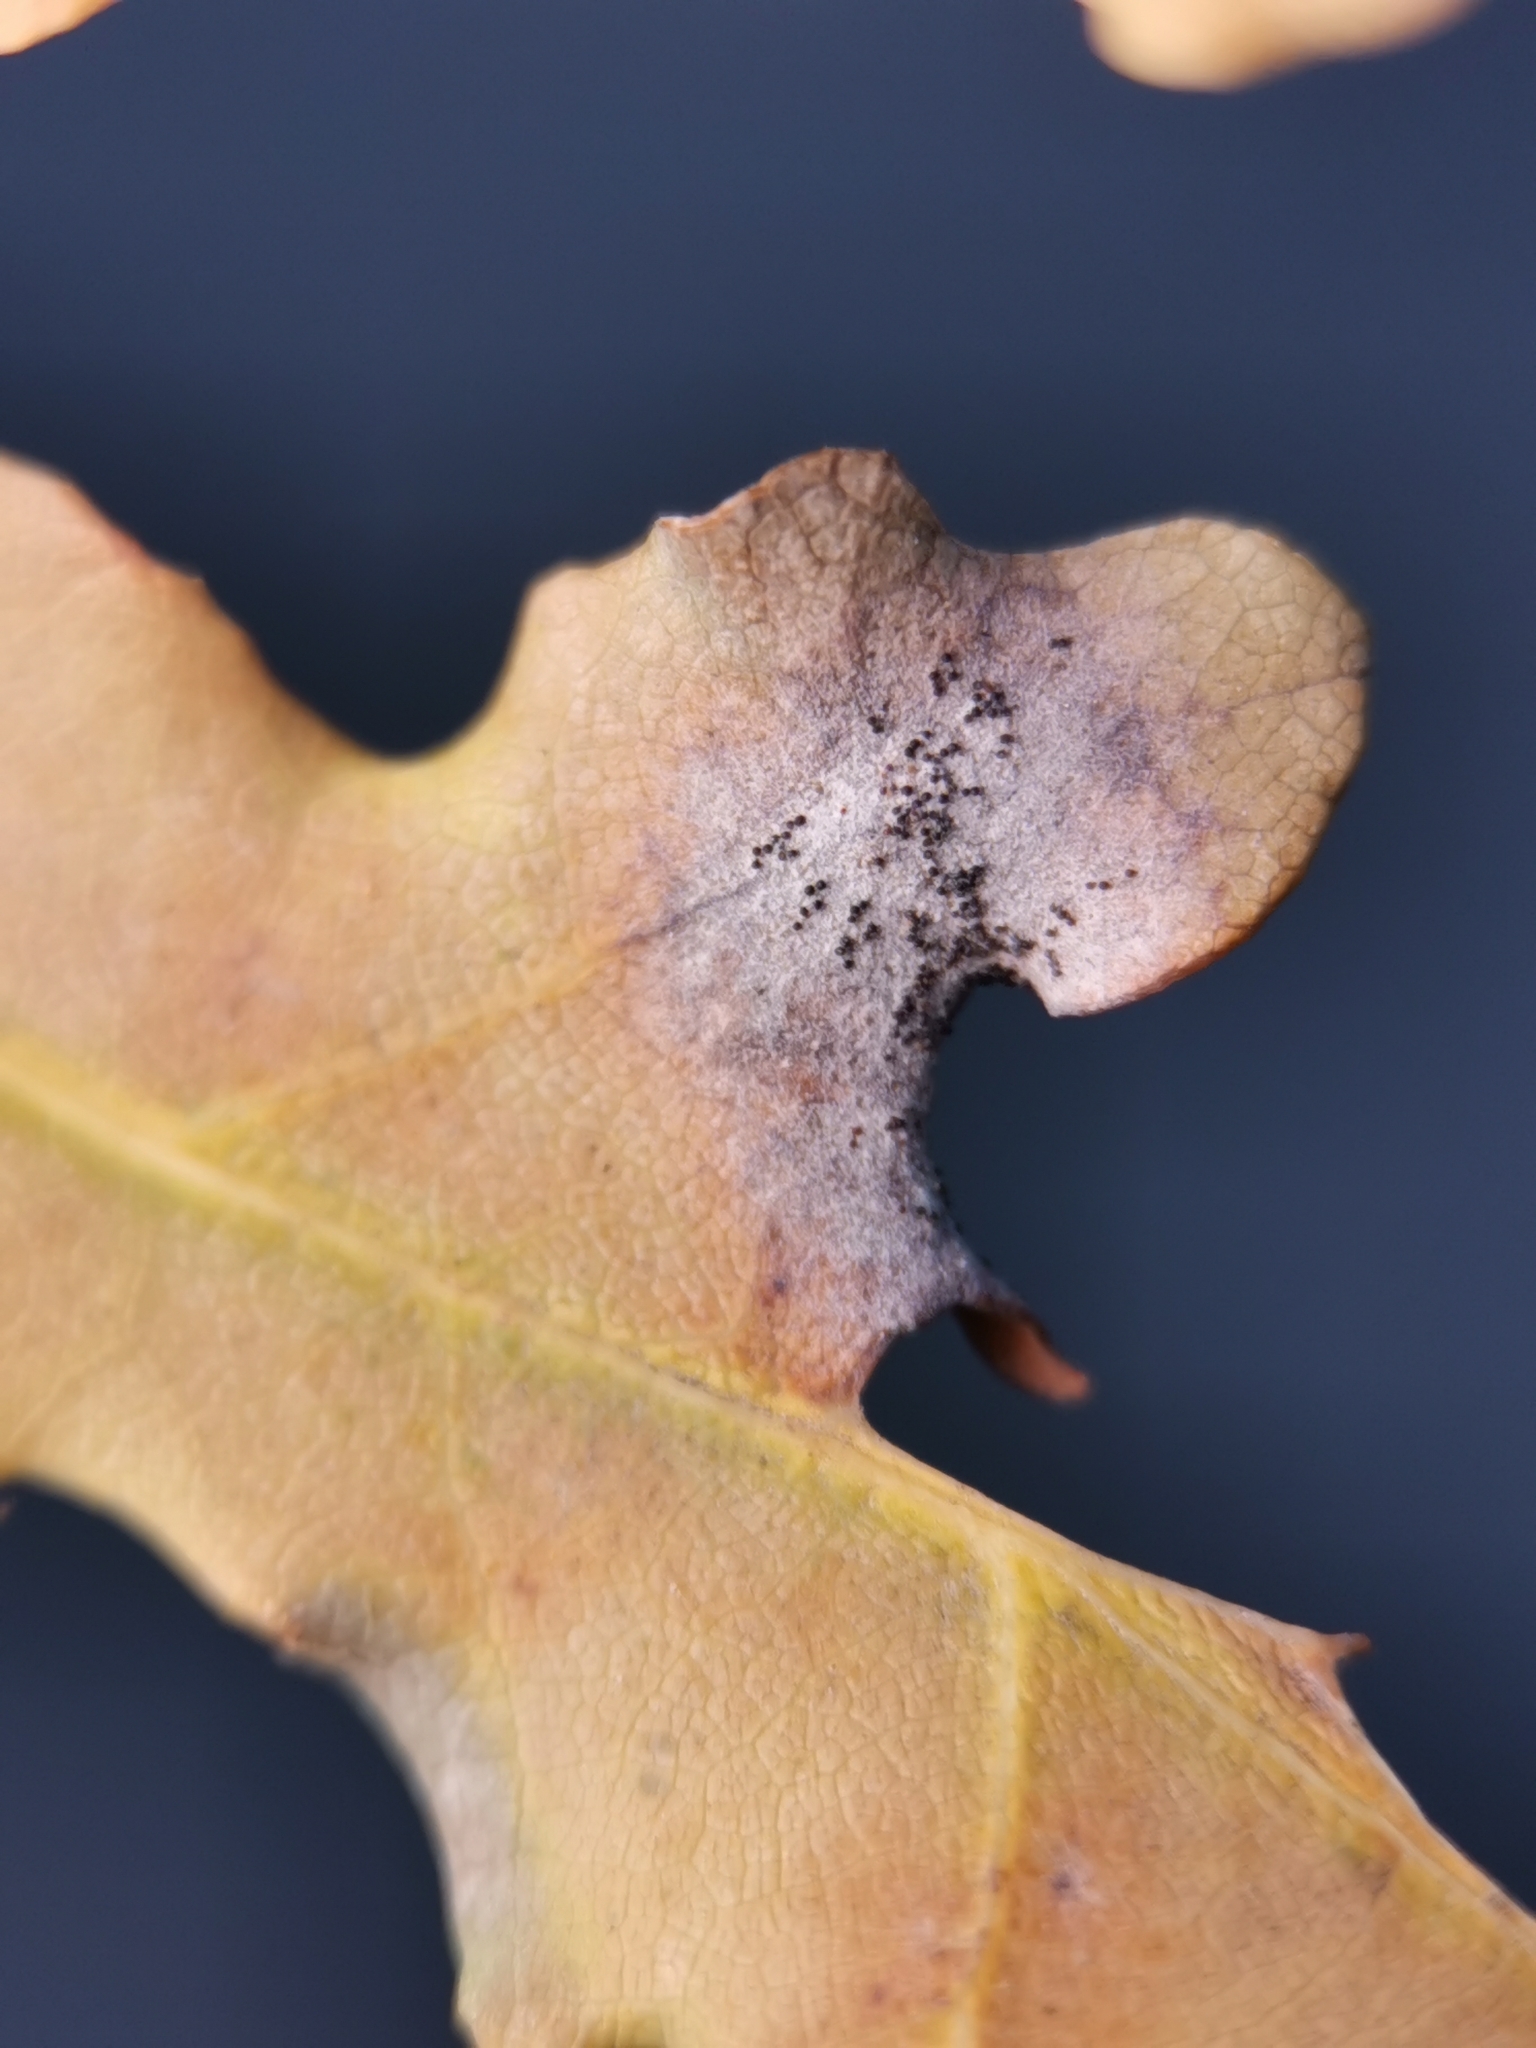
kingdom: Fungi
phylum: Ascomycota
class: Leotiomycetes
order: Helotiales
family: Erysiphaceae
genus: Erysiphe
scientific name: Erysiphe
